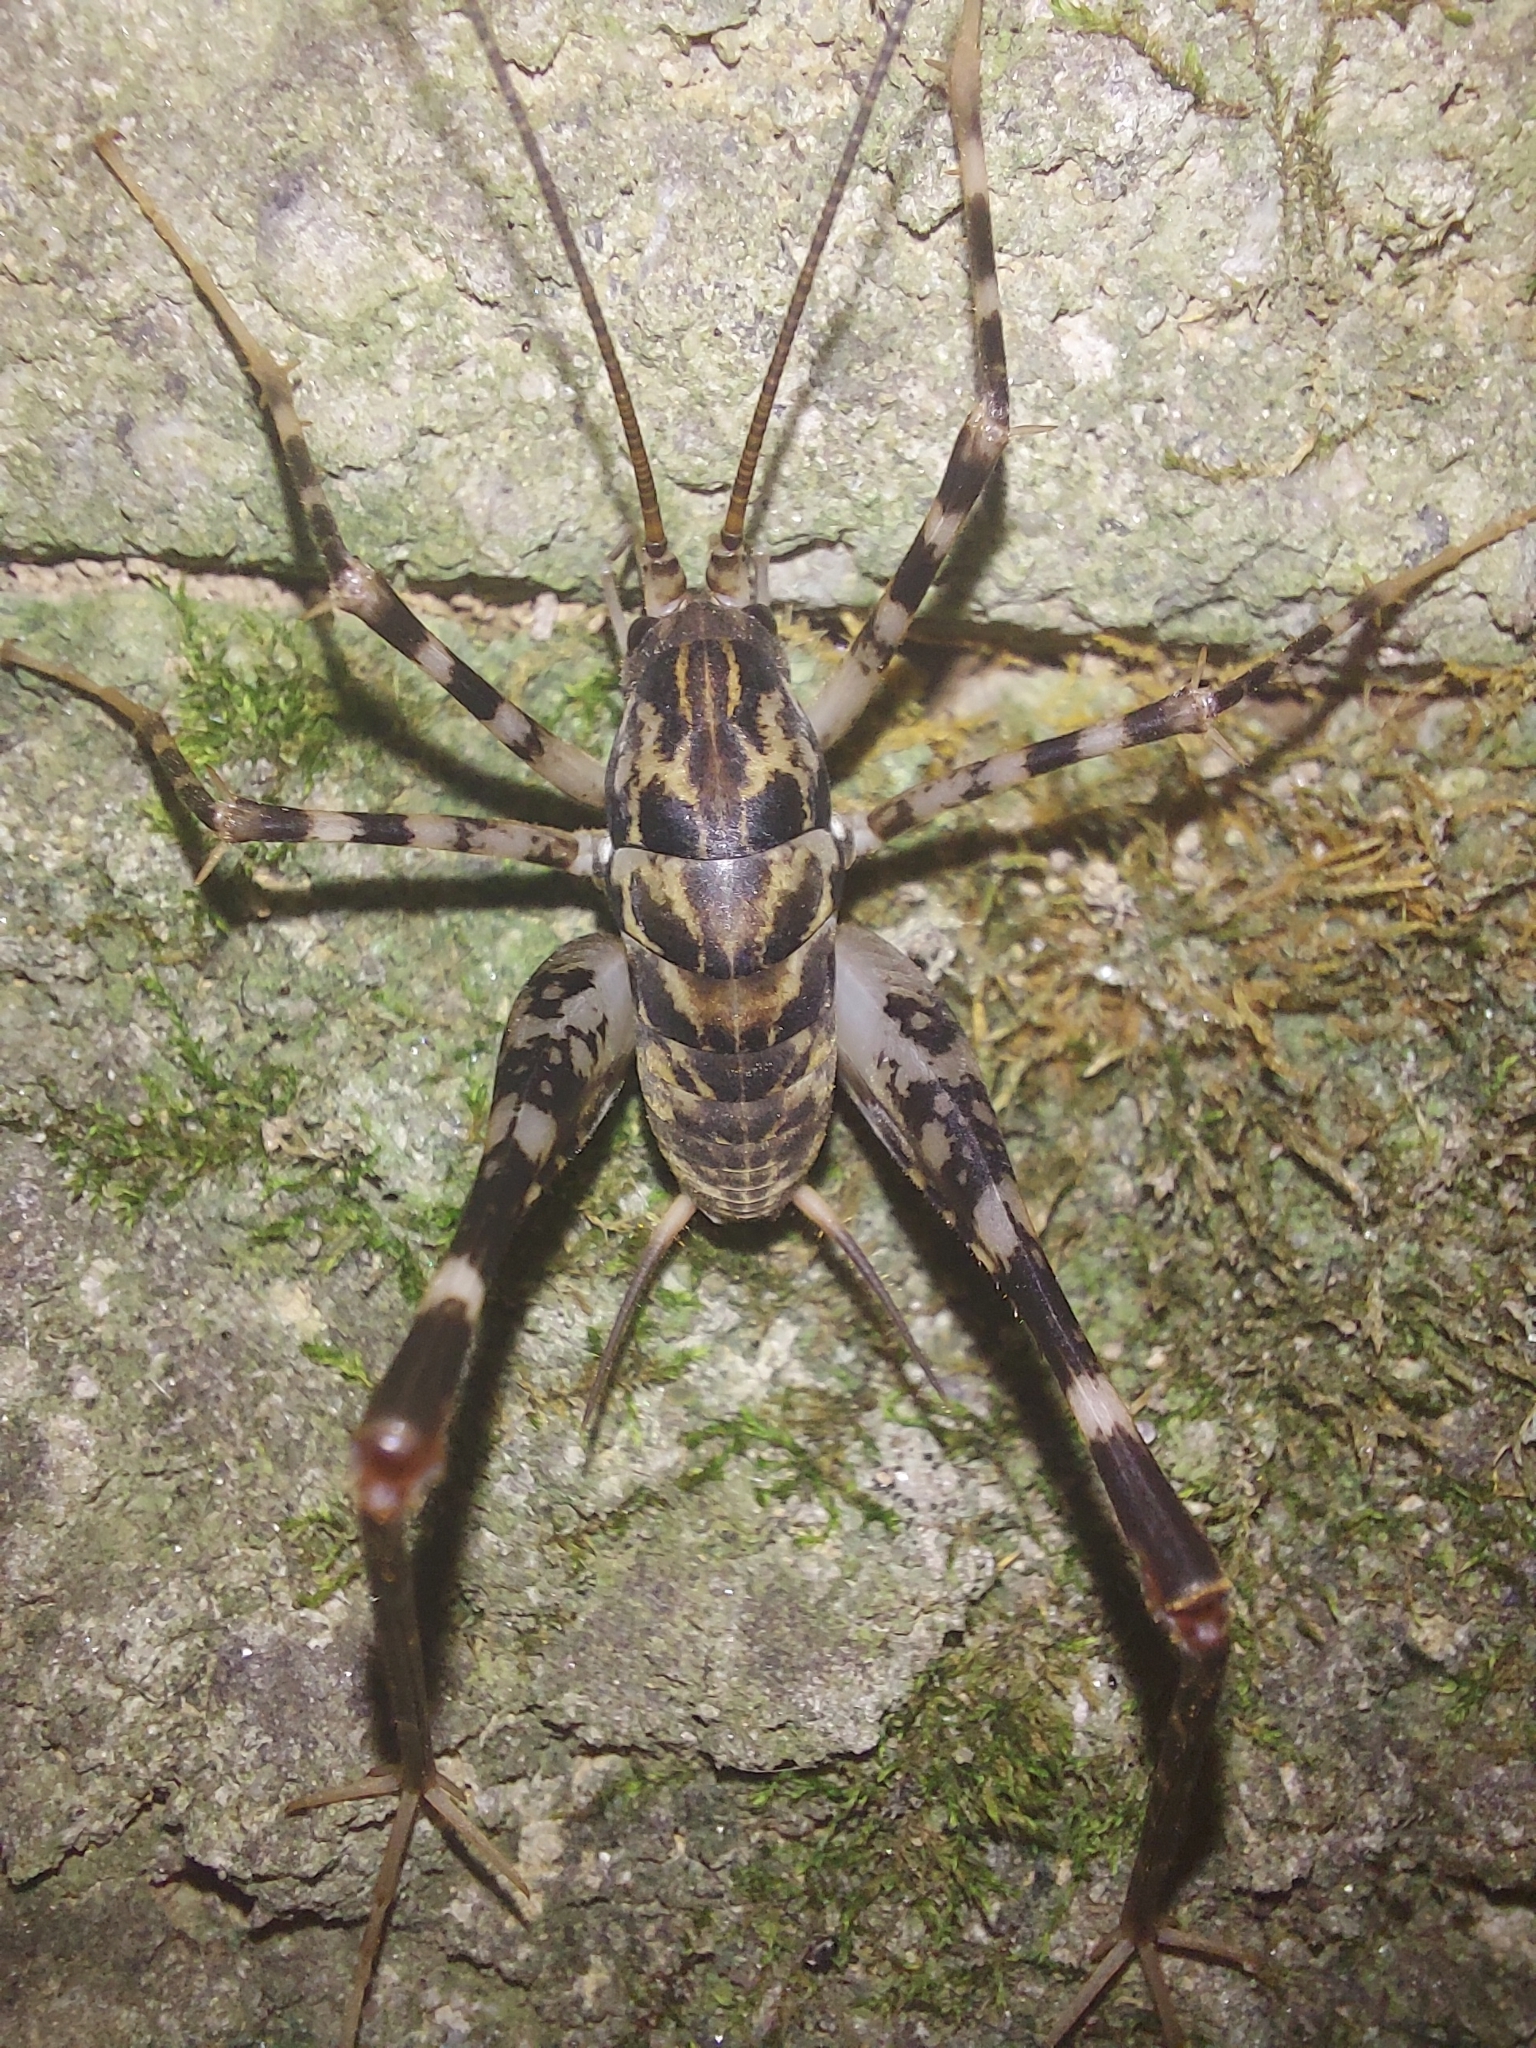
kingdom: Animalia
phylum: Arthropoda
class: Insecta
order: Orthoptera
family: Rhaphidophoridae
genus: Diestrammena
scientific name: Diestrammena japanica
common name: Japanese camel cricket
